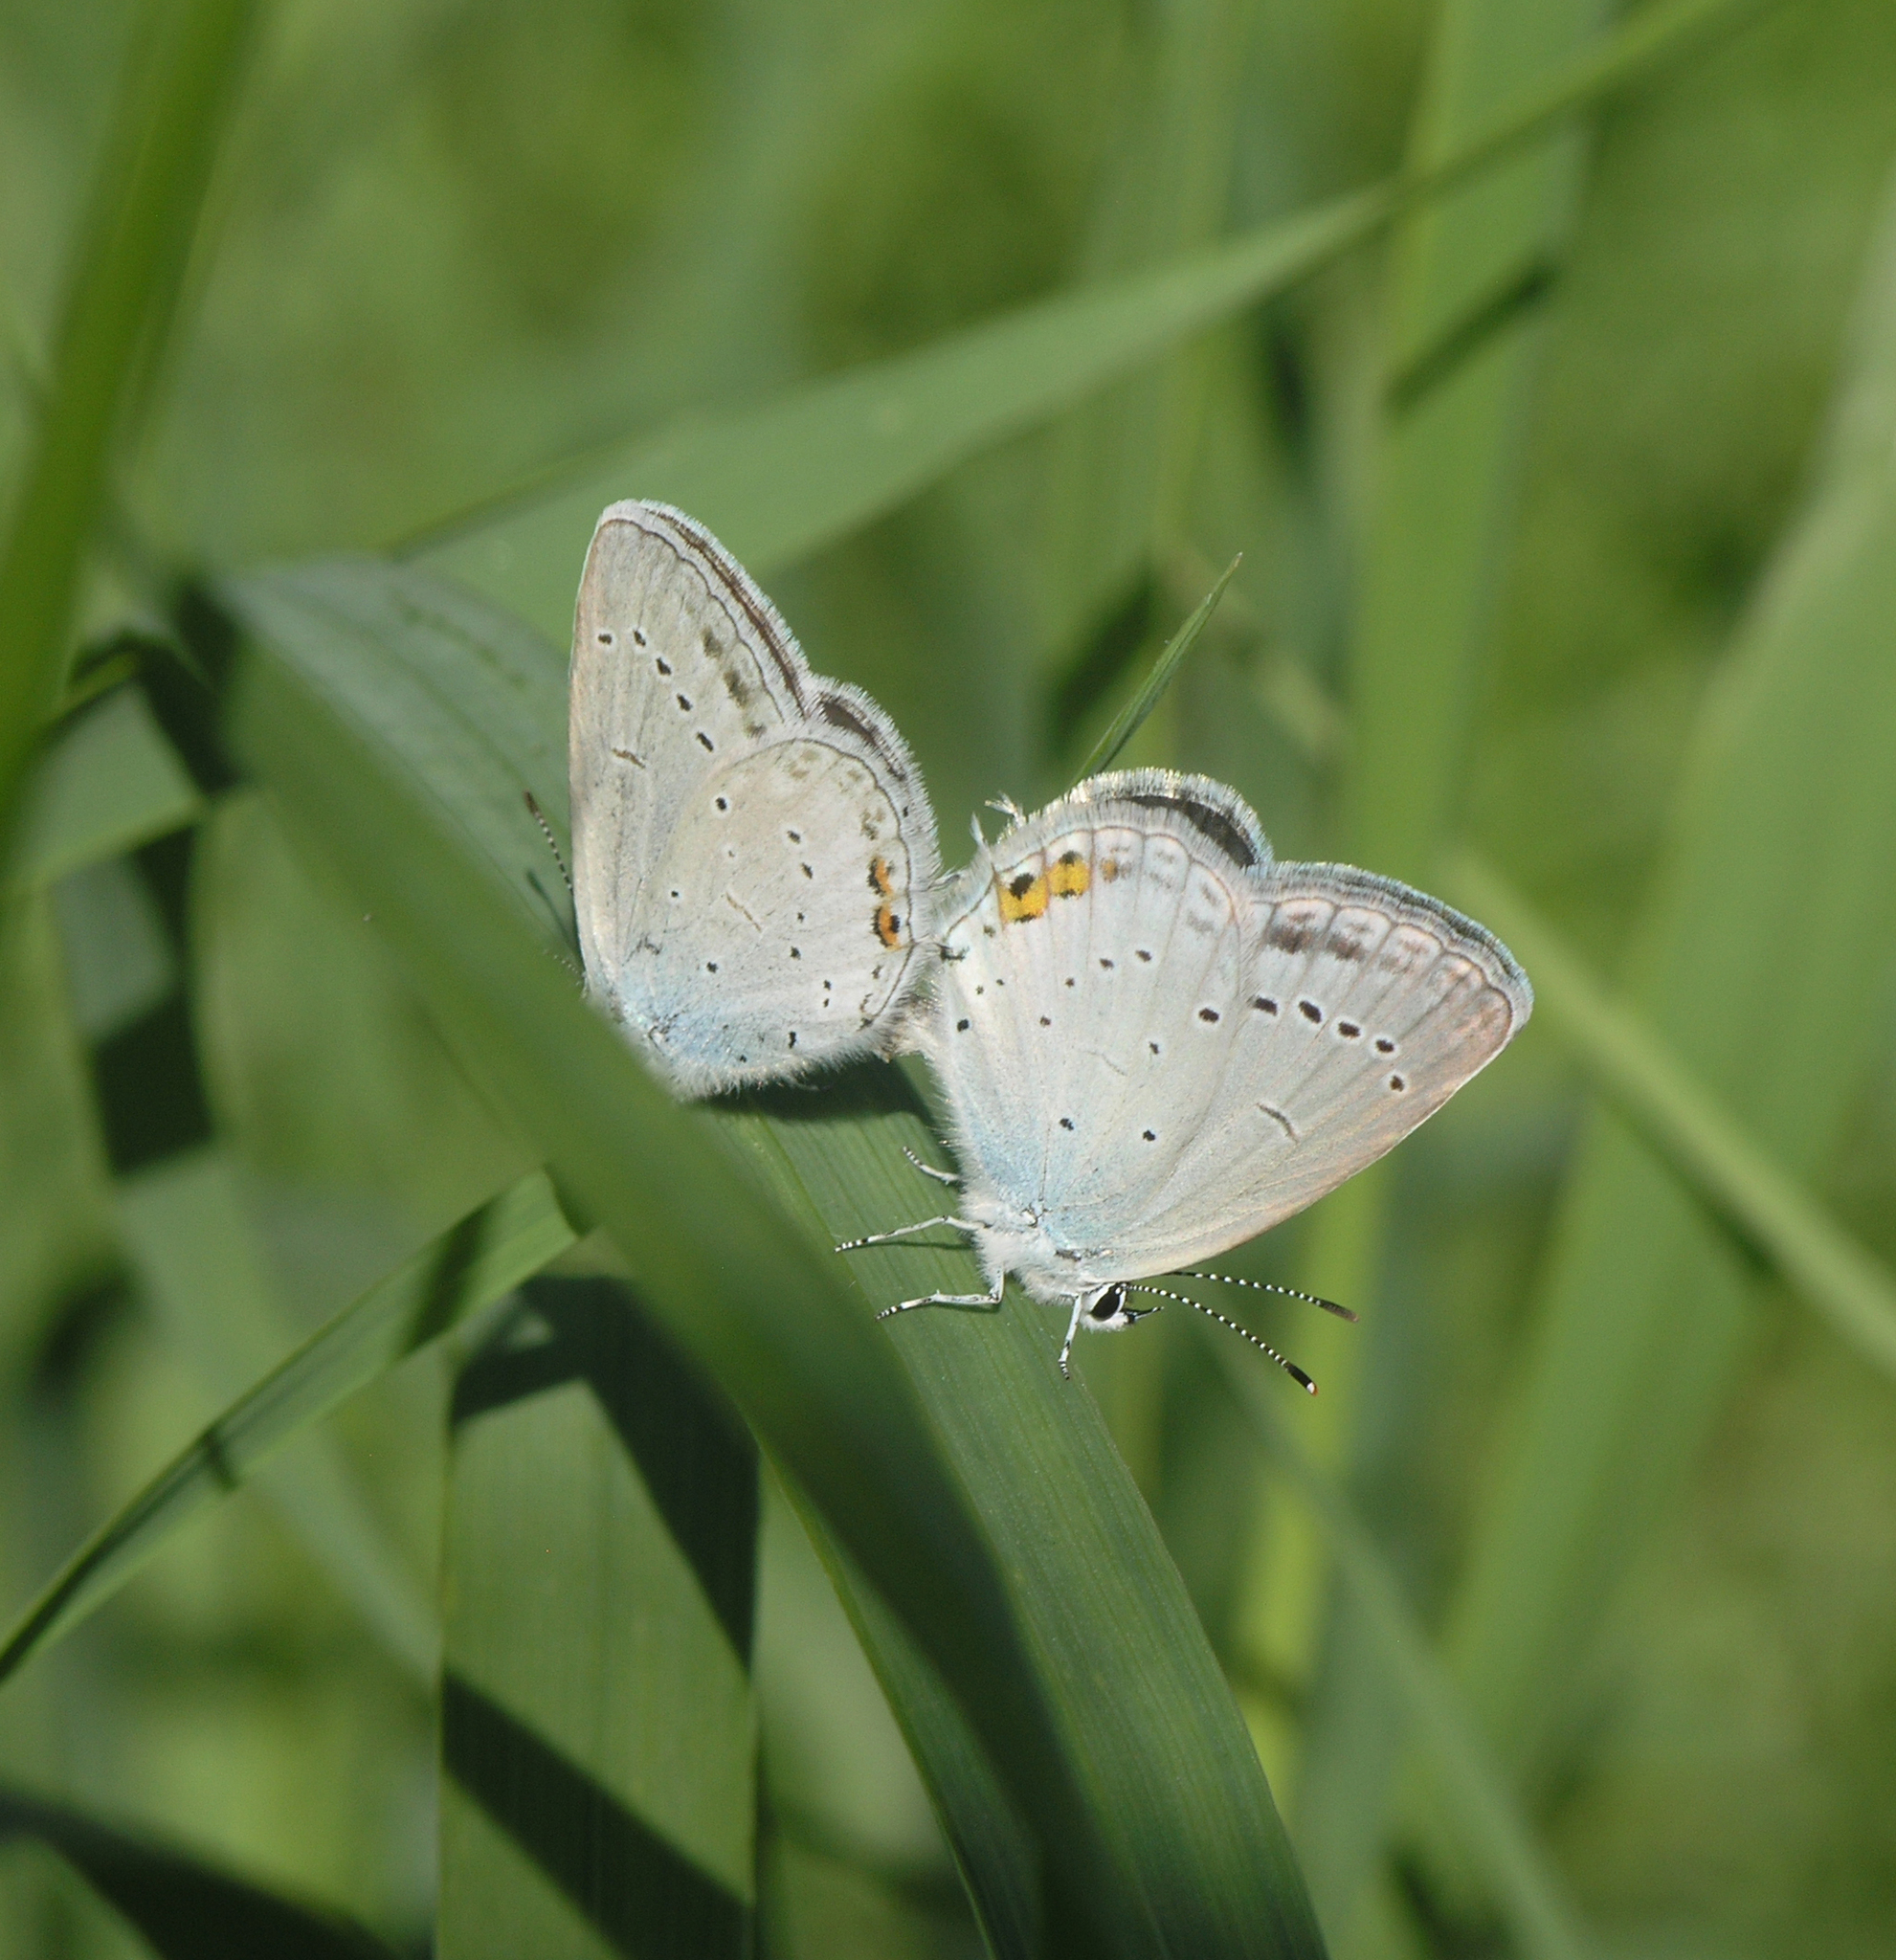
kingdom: Animalia
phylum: Arthropoda
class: Insecta
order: Lepidoptera
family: Lycaenidae
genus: Elkalyce
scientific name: Elkalyce argiades
